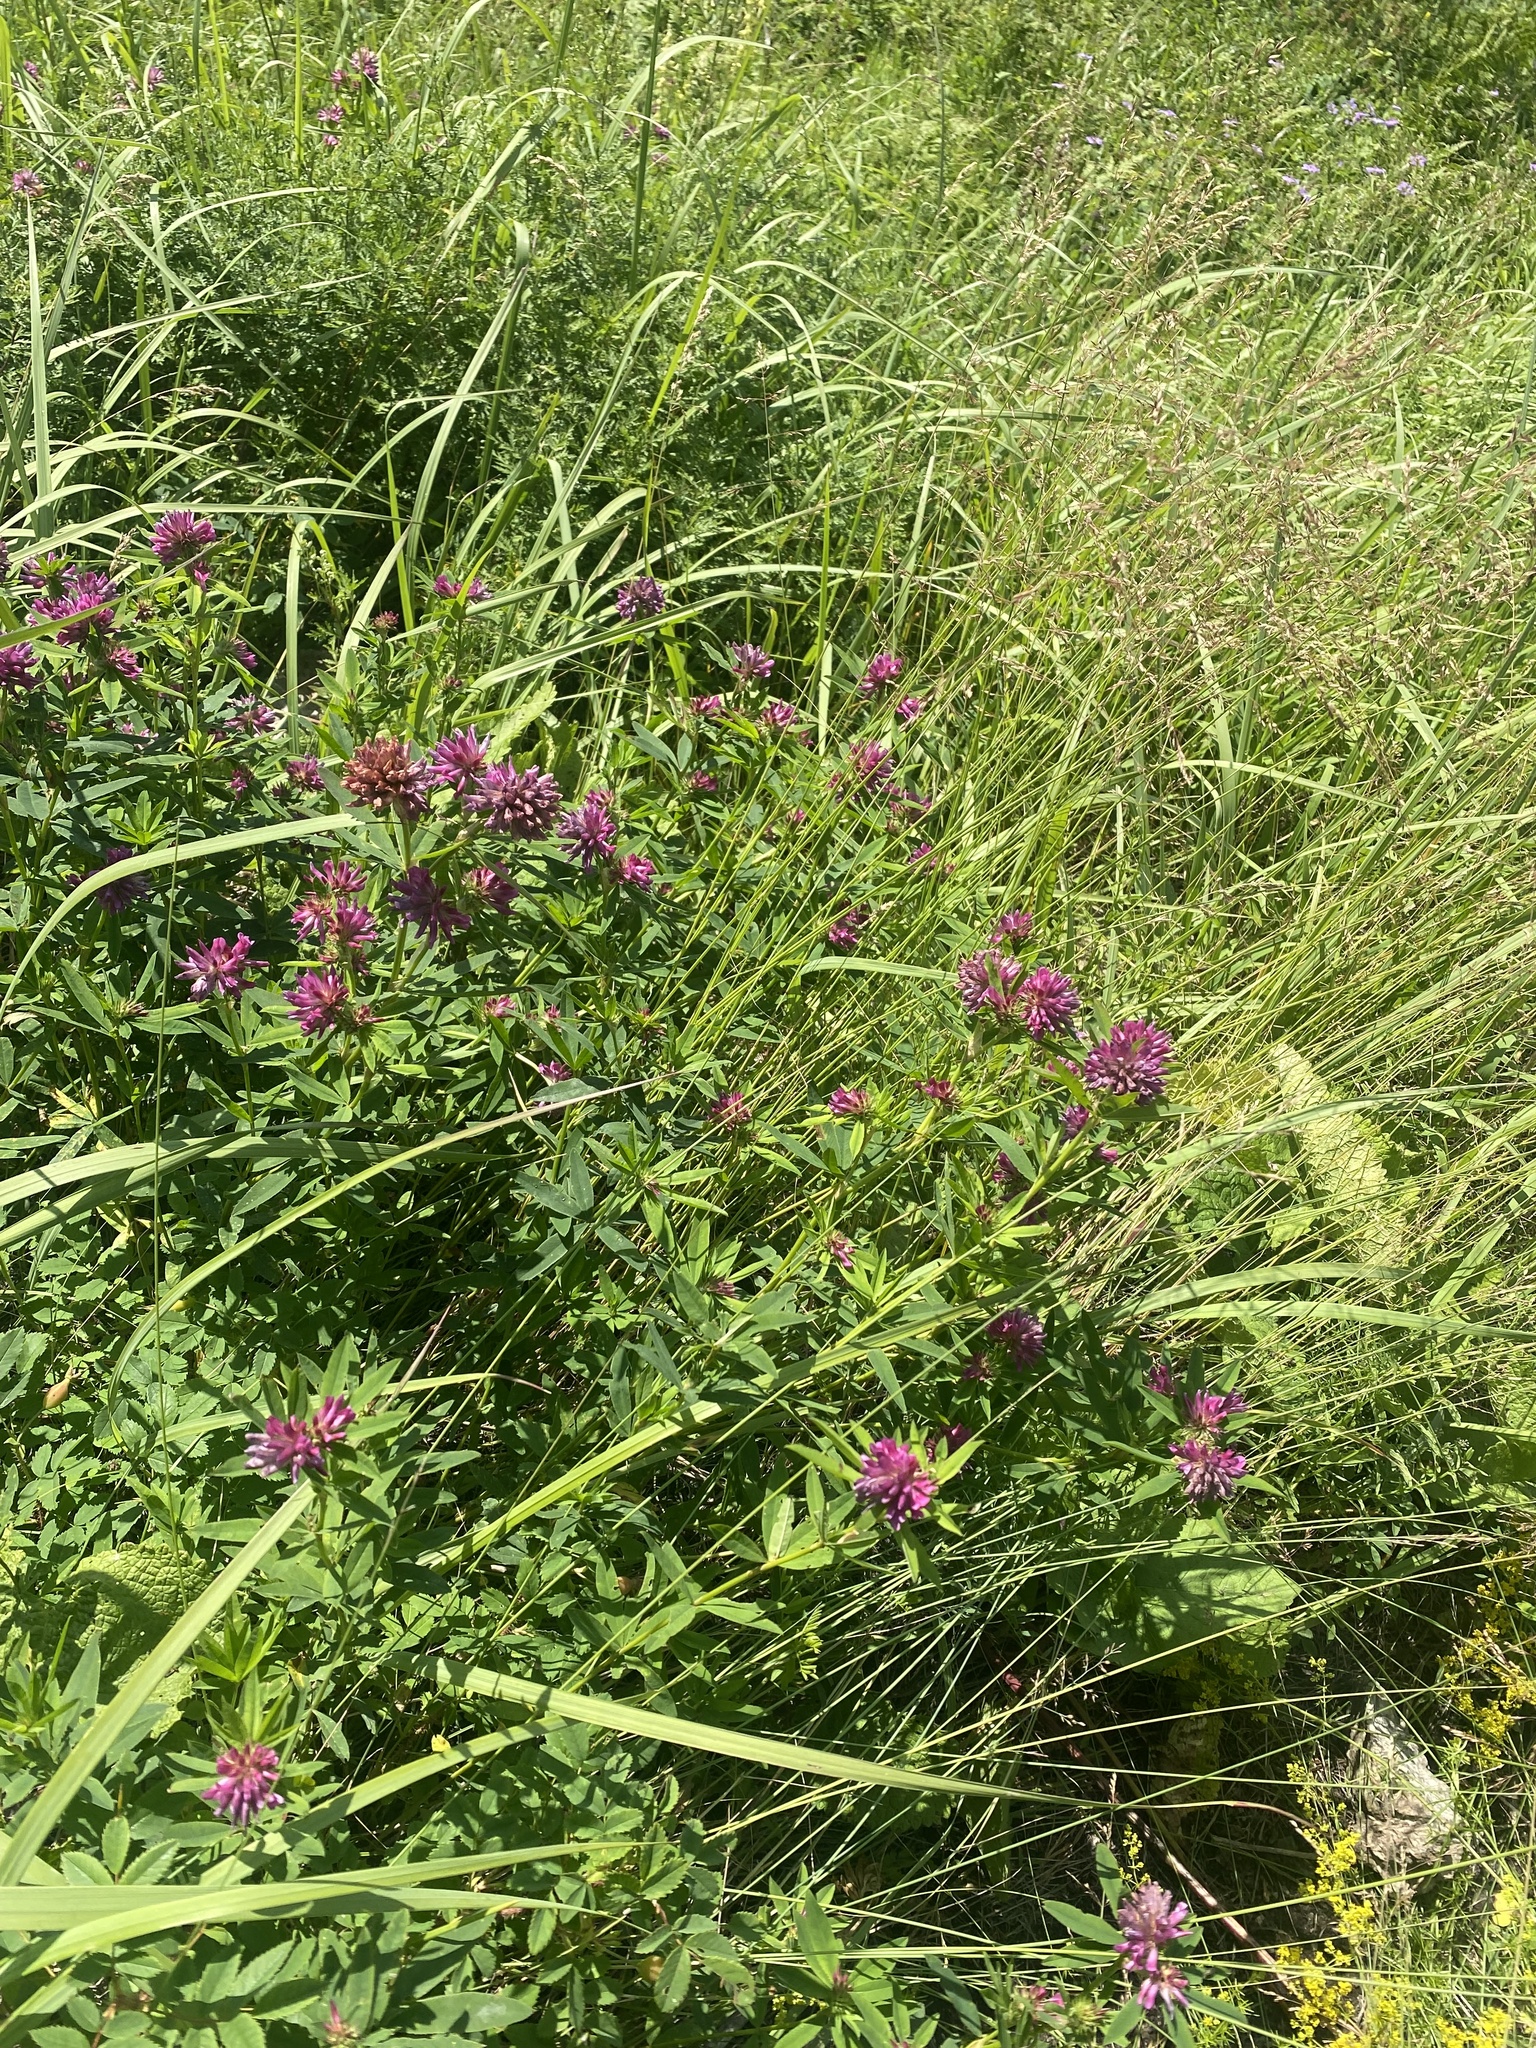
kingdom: Plantae
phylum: Tracheophyta
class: Magnoliopsida
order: Fabales
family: Fabaceae
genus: Trifolium
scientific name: Trifolium lupinaster
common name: Lupine clover
